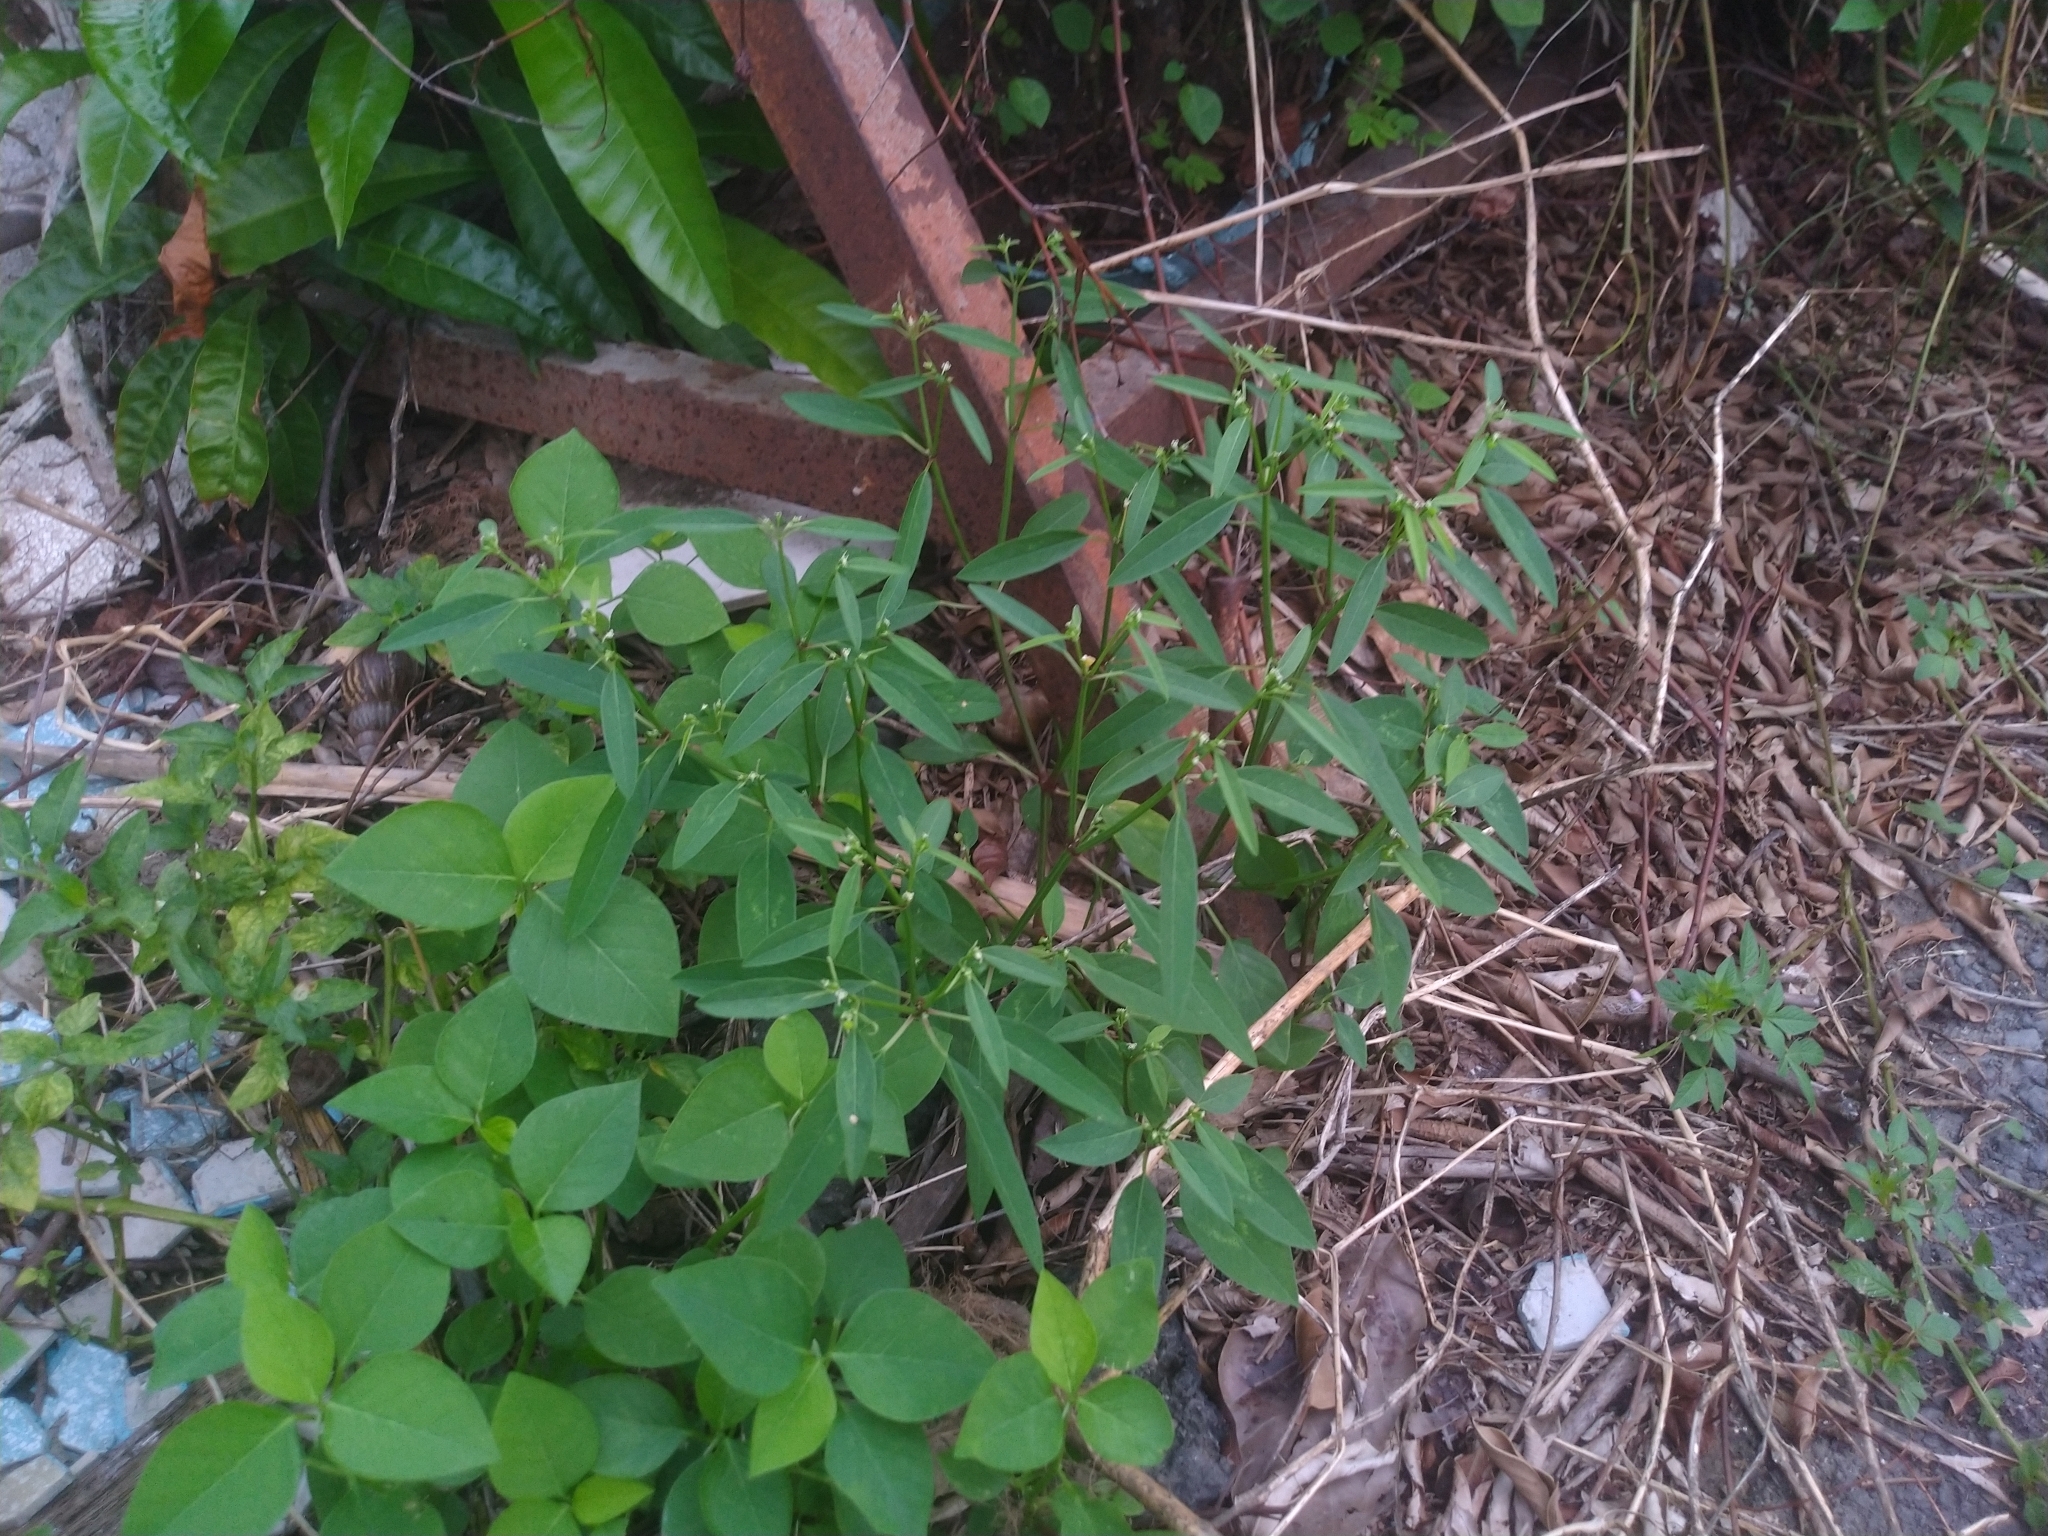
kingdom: Plantae
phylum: Tracheophyta
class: Magnoliopsida
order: Malpighiales
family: Euphorbiaceae
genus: Euphorbia
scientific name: Euphorbia graminea
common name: Grassleaf spurge
